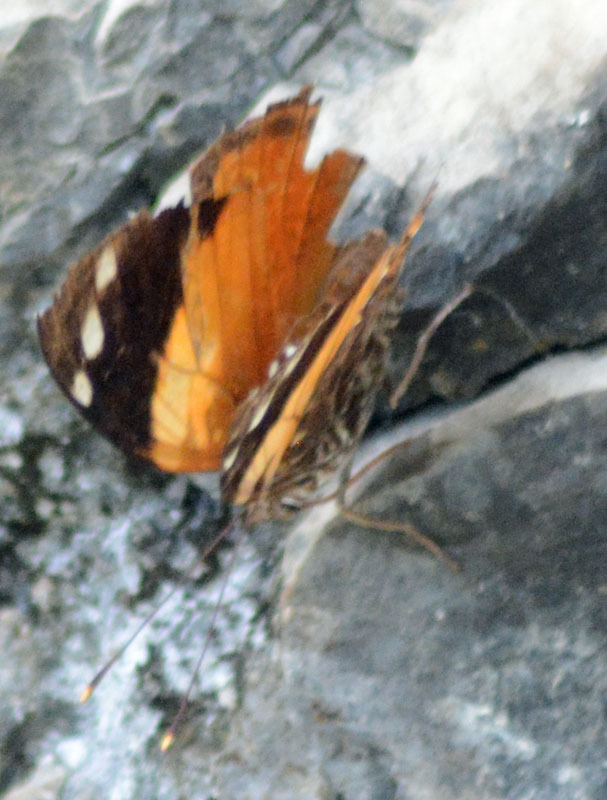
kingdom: Animalia
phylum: Arthropoda
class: Insecta
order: Lepidoptera
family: Nymphalidae
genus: Smyrna
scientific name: Smyrna blomfildia
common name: Blomfild's beauty
